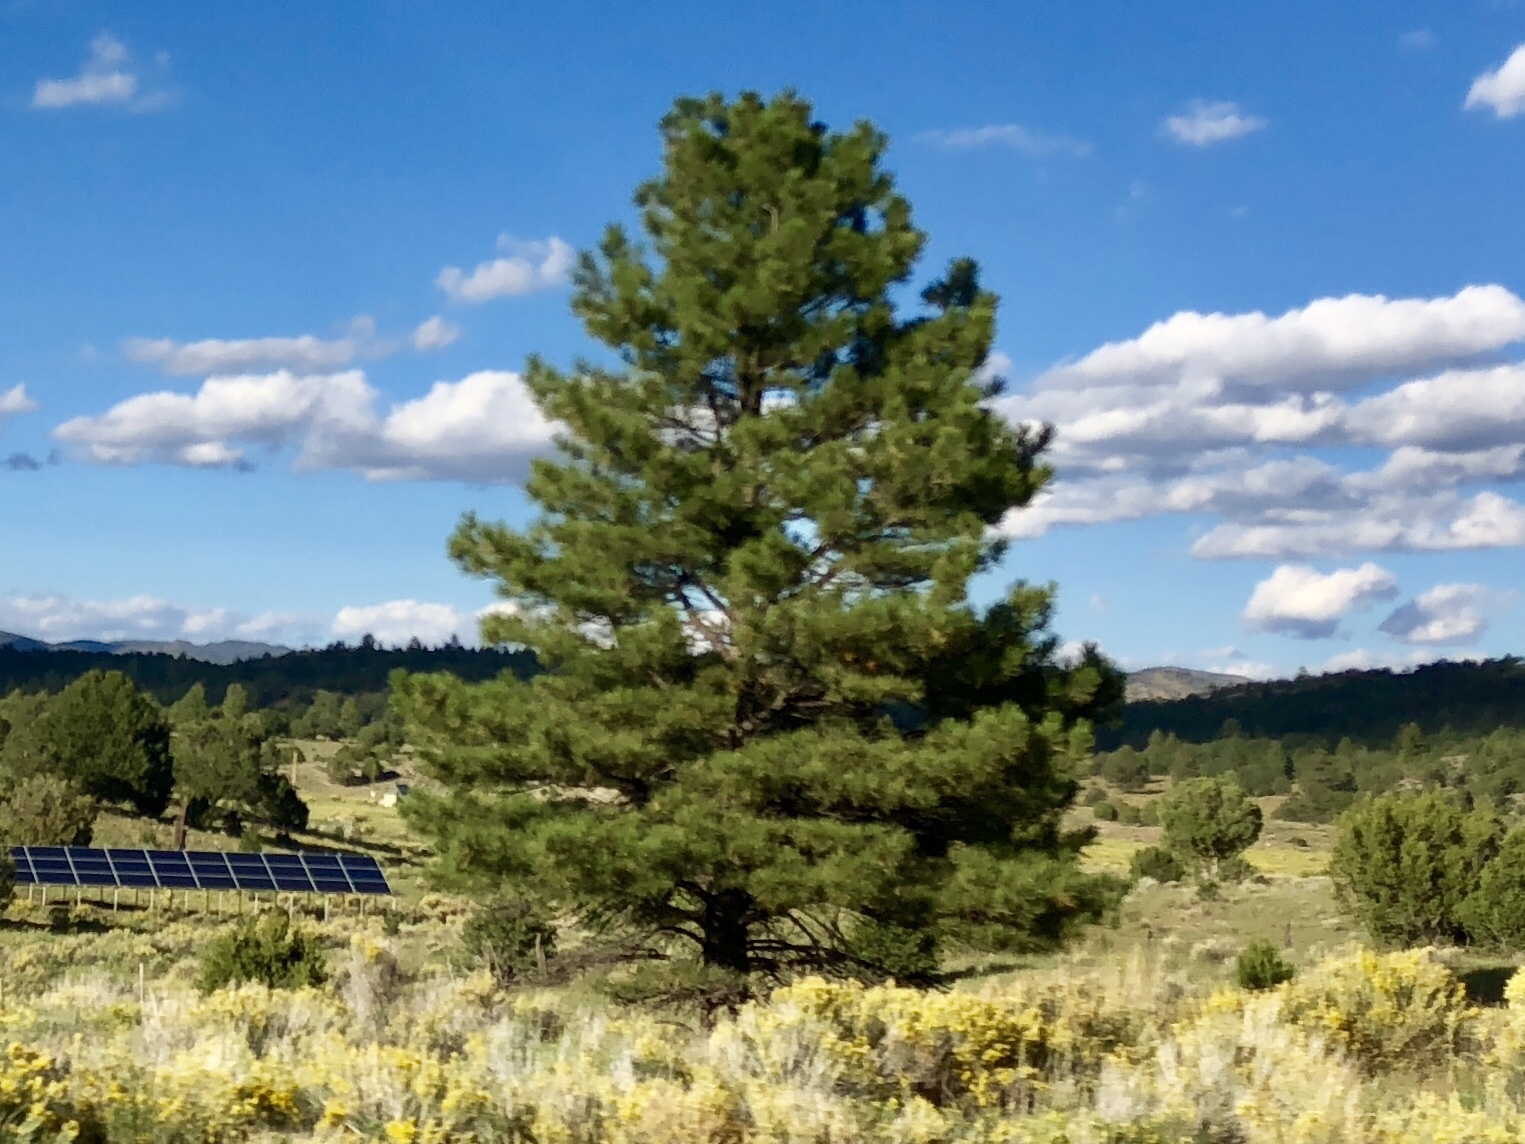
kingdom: Plantae
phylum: Tracheophyta
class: Pinopsida
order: Pinales
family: Pinaceae
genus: Pinus
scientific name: Pinus ponderosa
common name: Western yellow-pine
